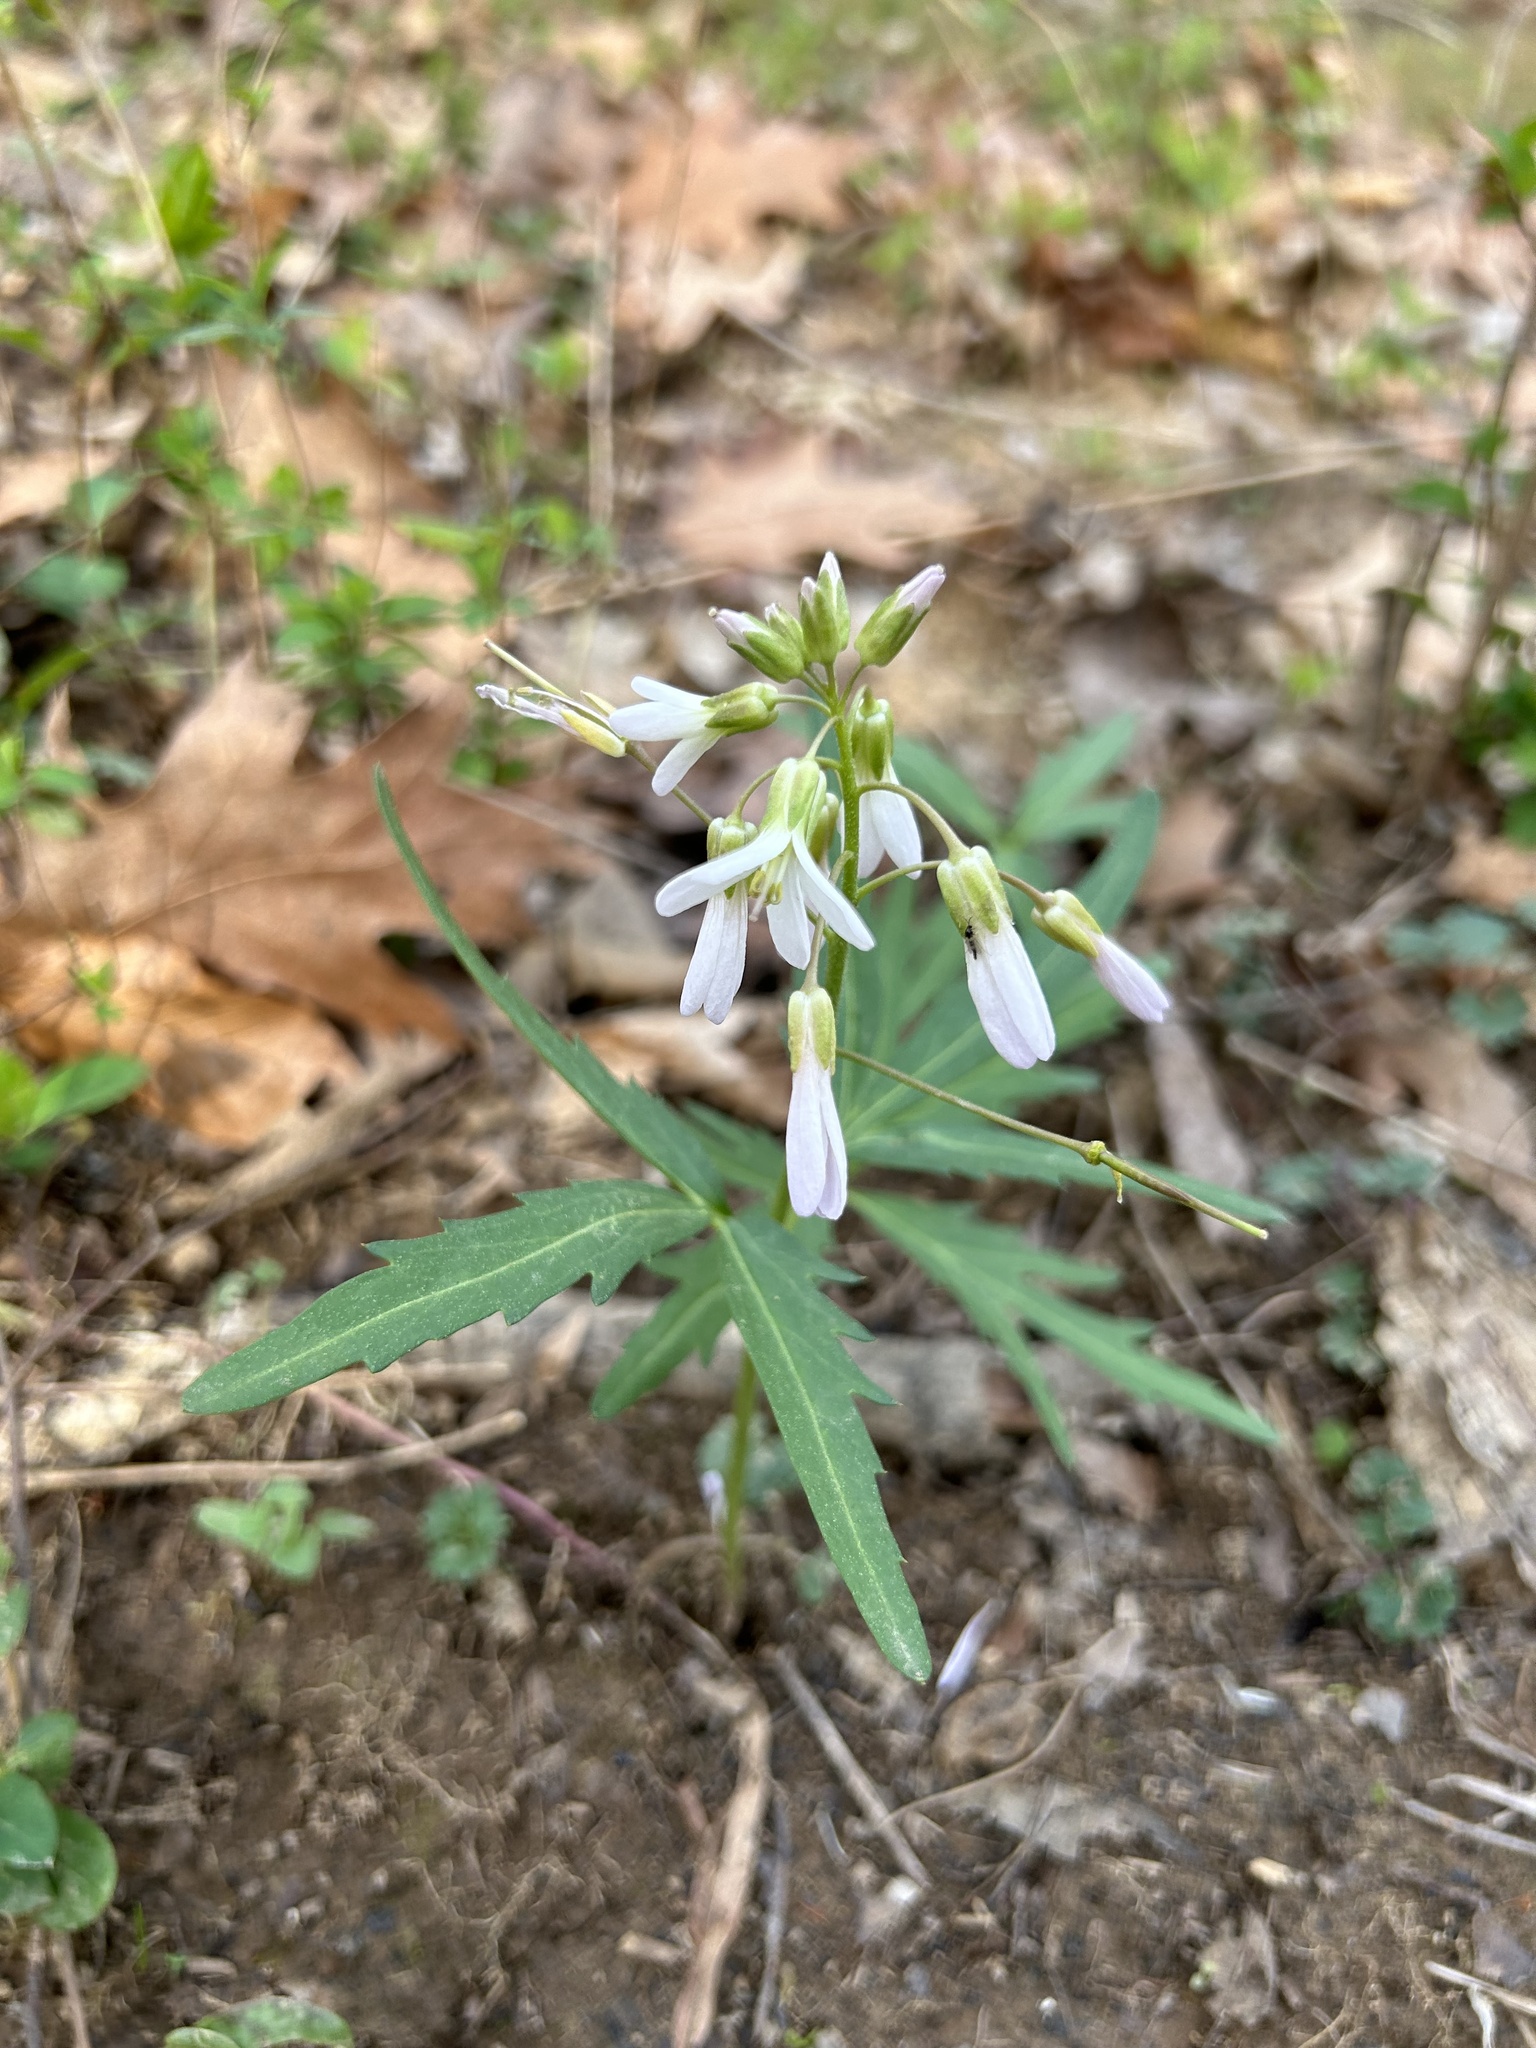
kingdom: Plantae
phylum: Tracheophyta
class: Magnoliopsida
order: Brassicales
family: Brassicaceae
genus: Cardamine
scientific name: Cardamine concatenata
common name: Cut-leaf toothcup
